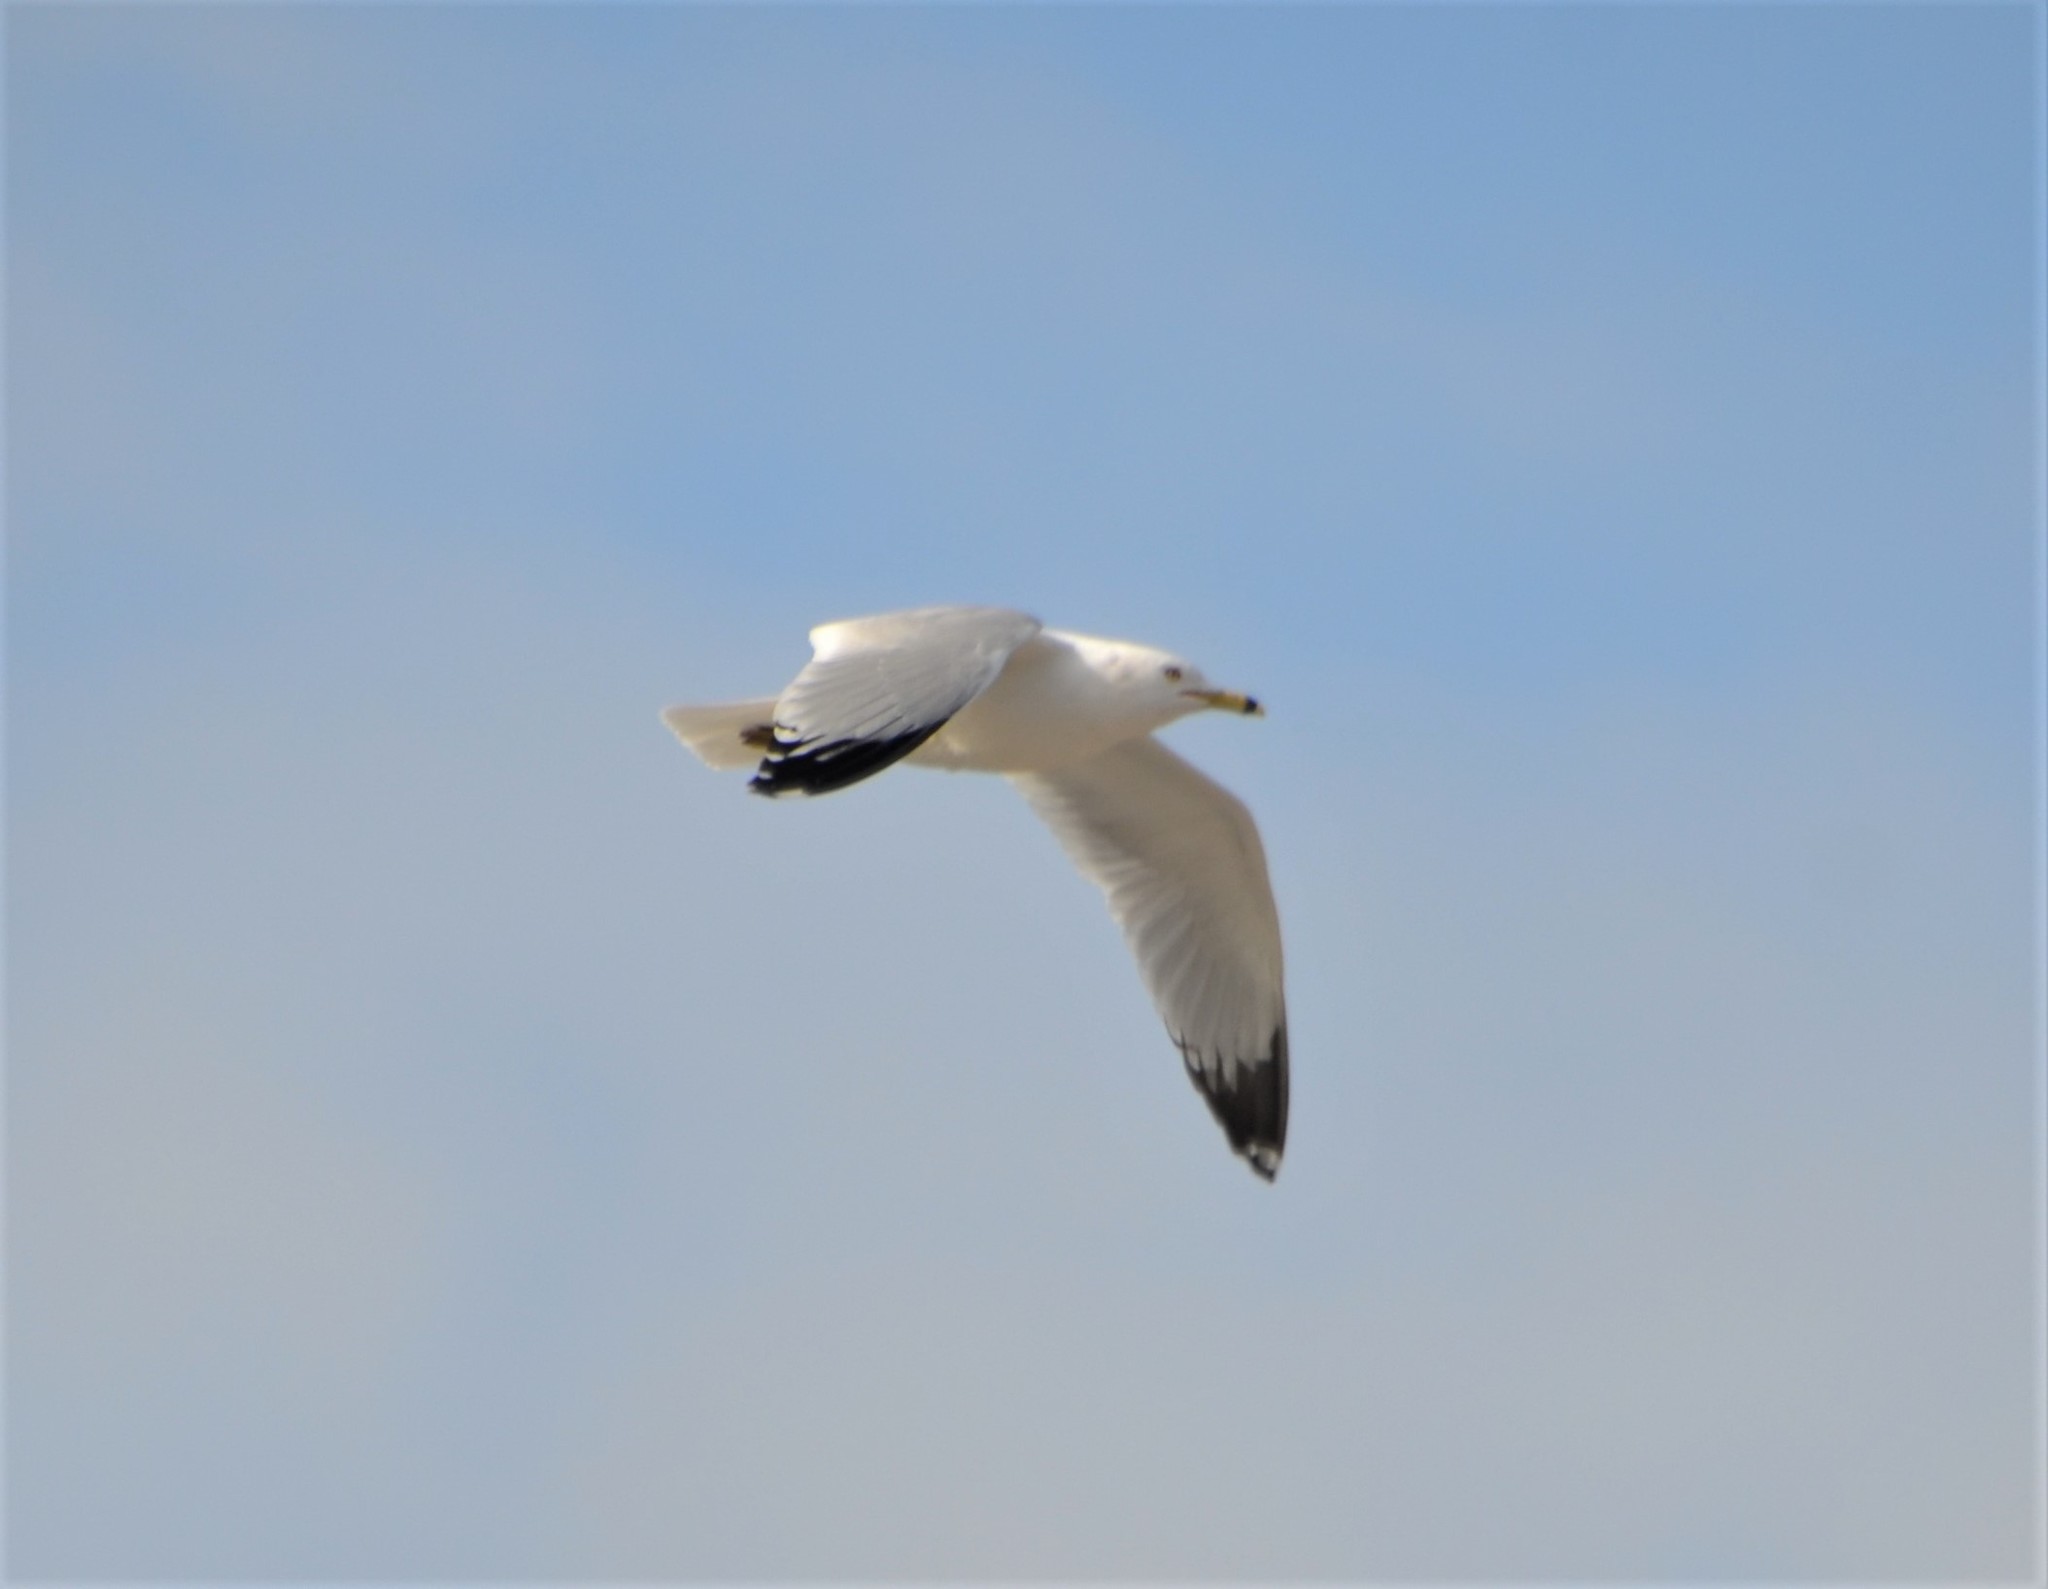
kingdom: Animalia
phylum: Chordata
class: Aves
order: Charadriiformes
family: Laridae
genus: Larus
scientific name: Larus delawarensis
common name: Ring-billed gull
